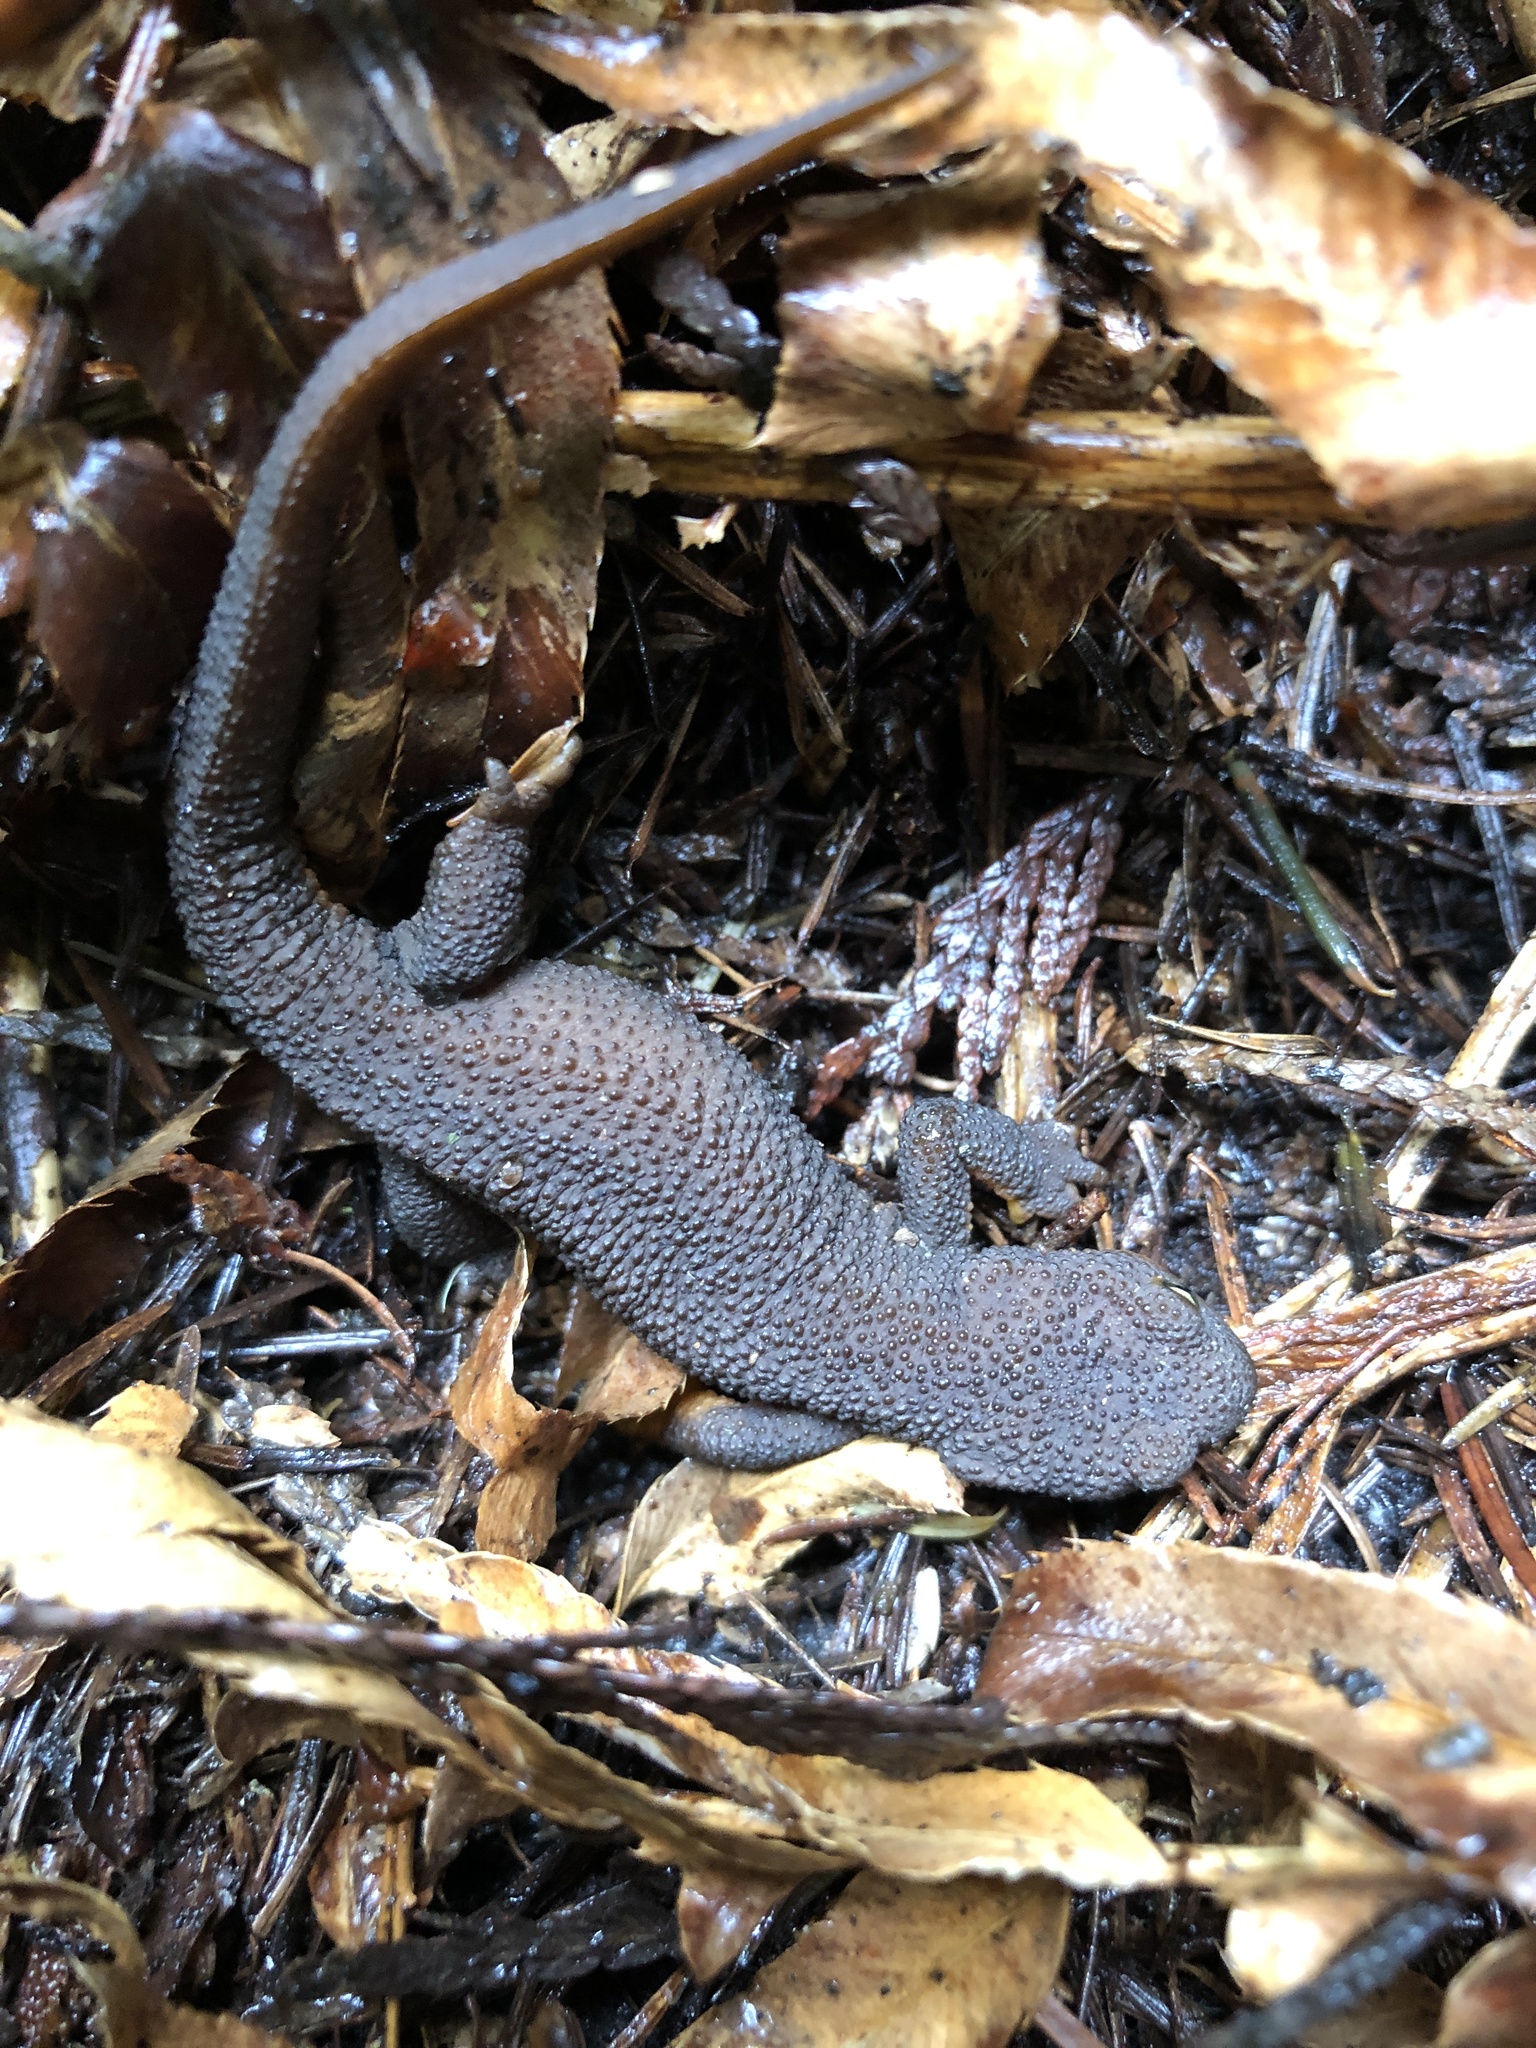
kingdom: Animalia
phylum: Chordata
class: Amphibia
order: Caudata
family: Salamandridae
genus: Taricha
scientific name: Taricha granulosa
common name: Roughskin newt
